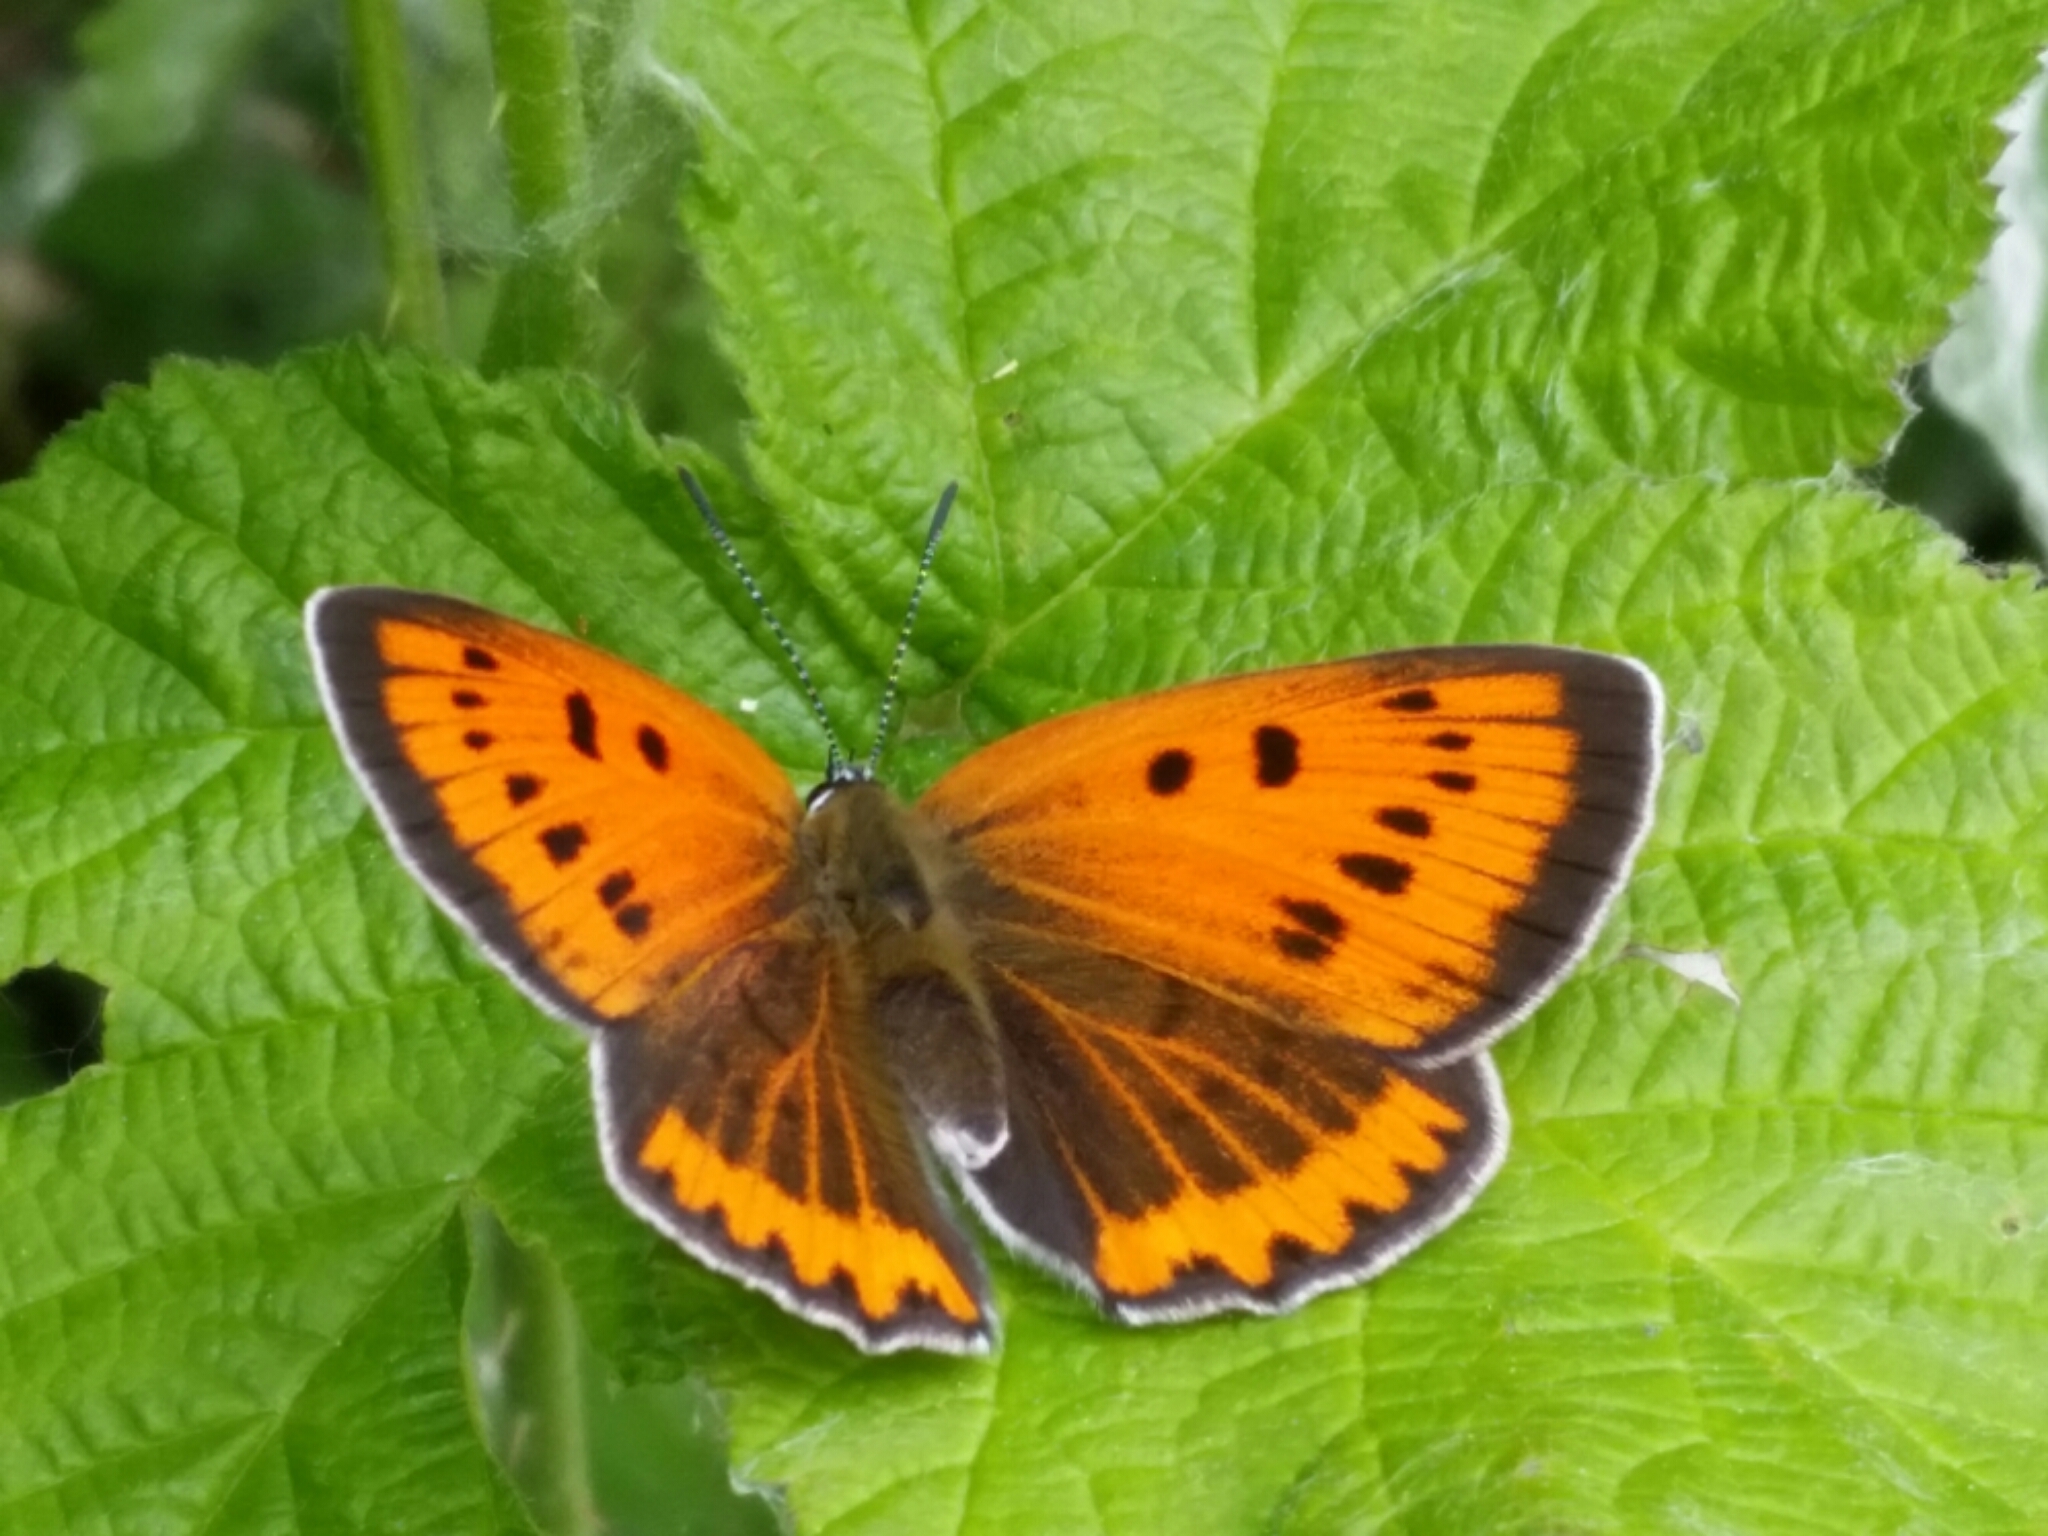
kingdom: Animalia
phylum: Arthropoda
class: Insecta
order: Lepidoptera
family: Lycaenidae
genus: Lycaena
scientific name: Lycaena dispar
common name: Large copper
